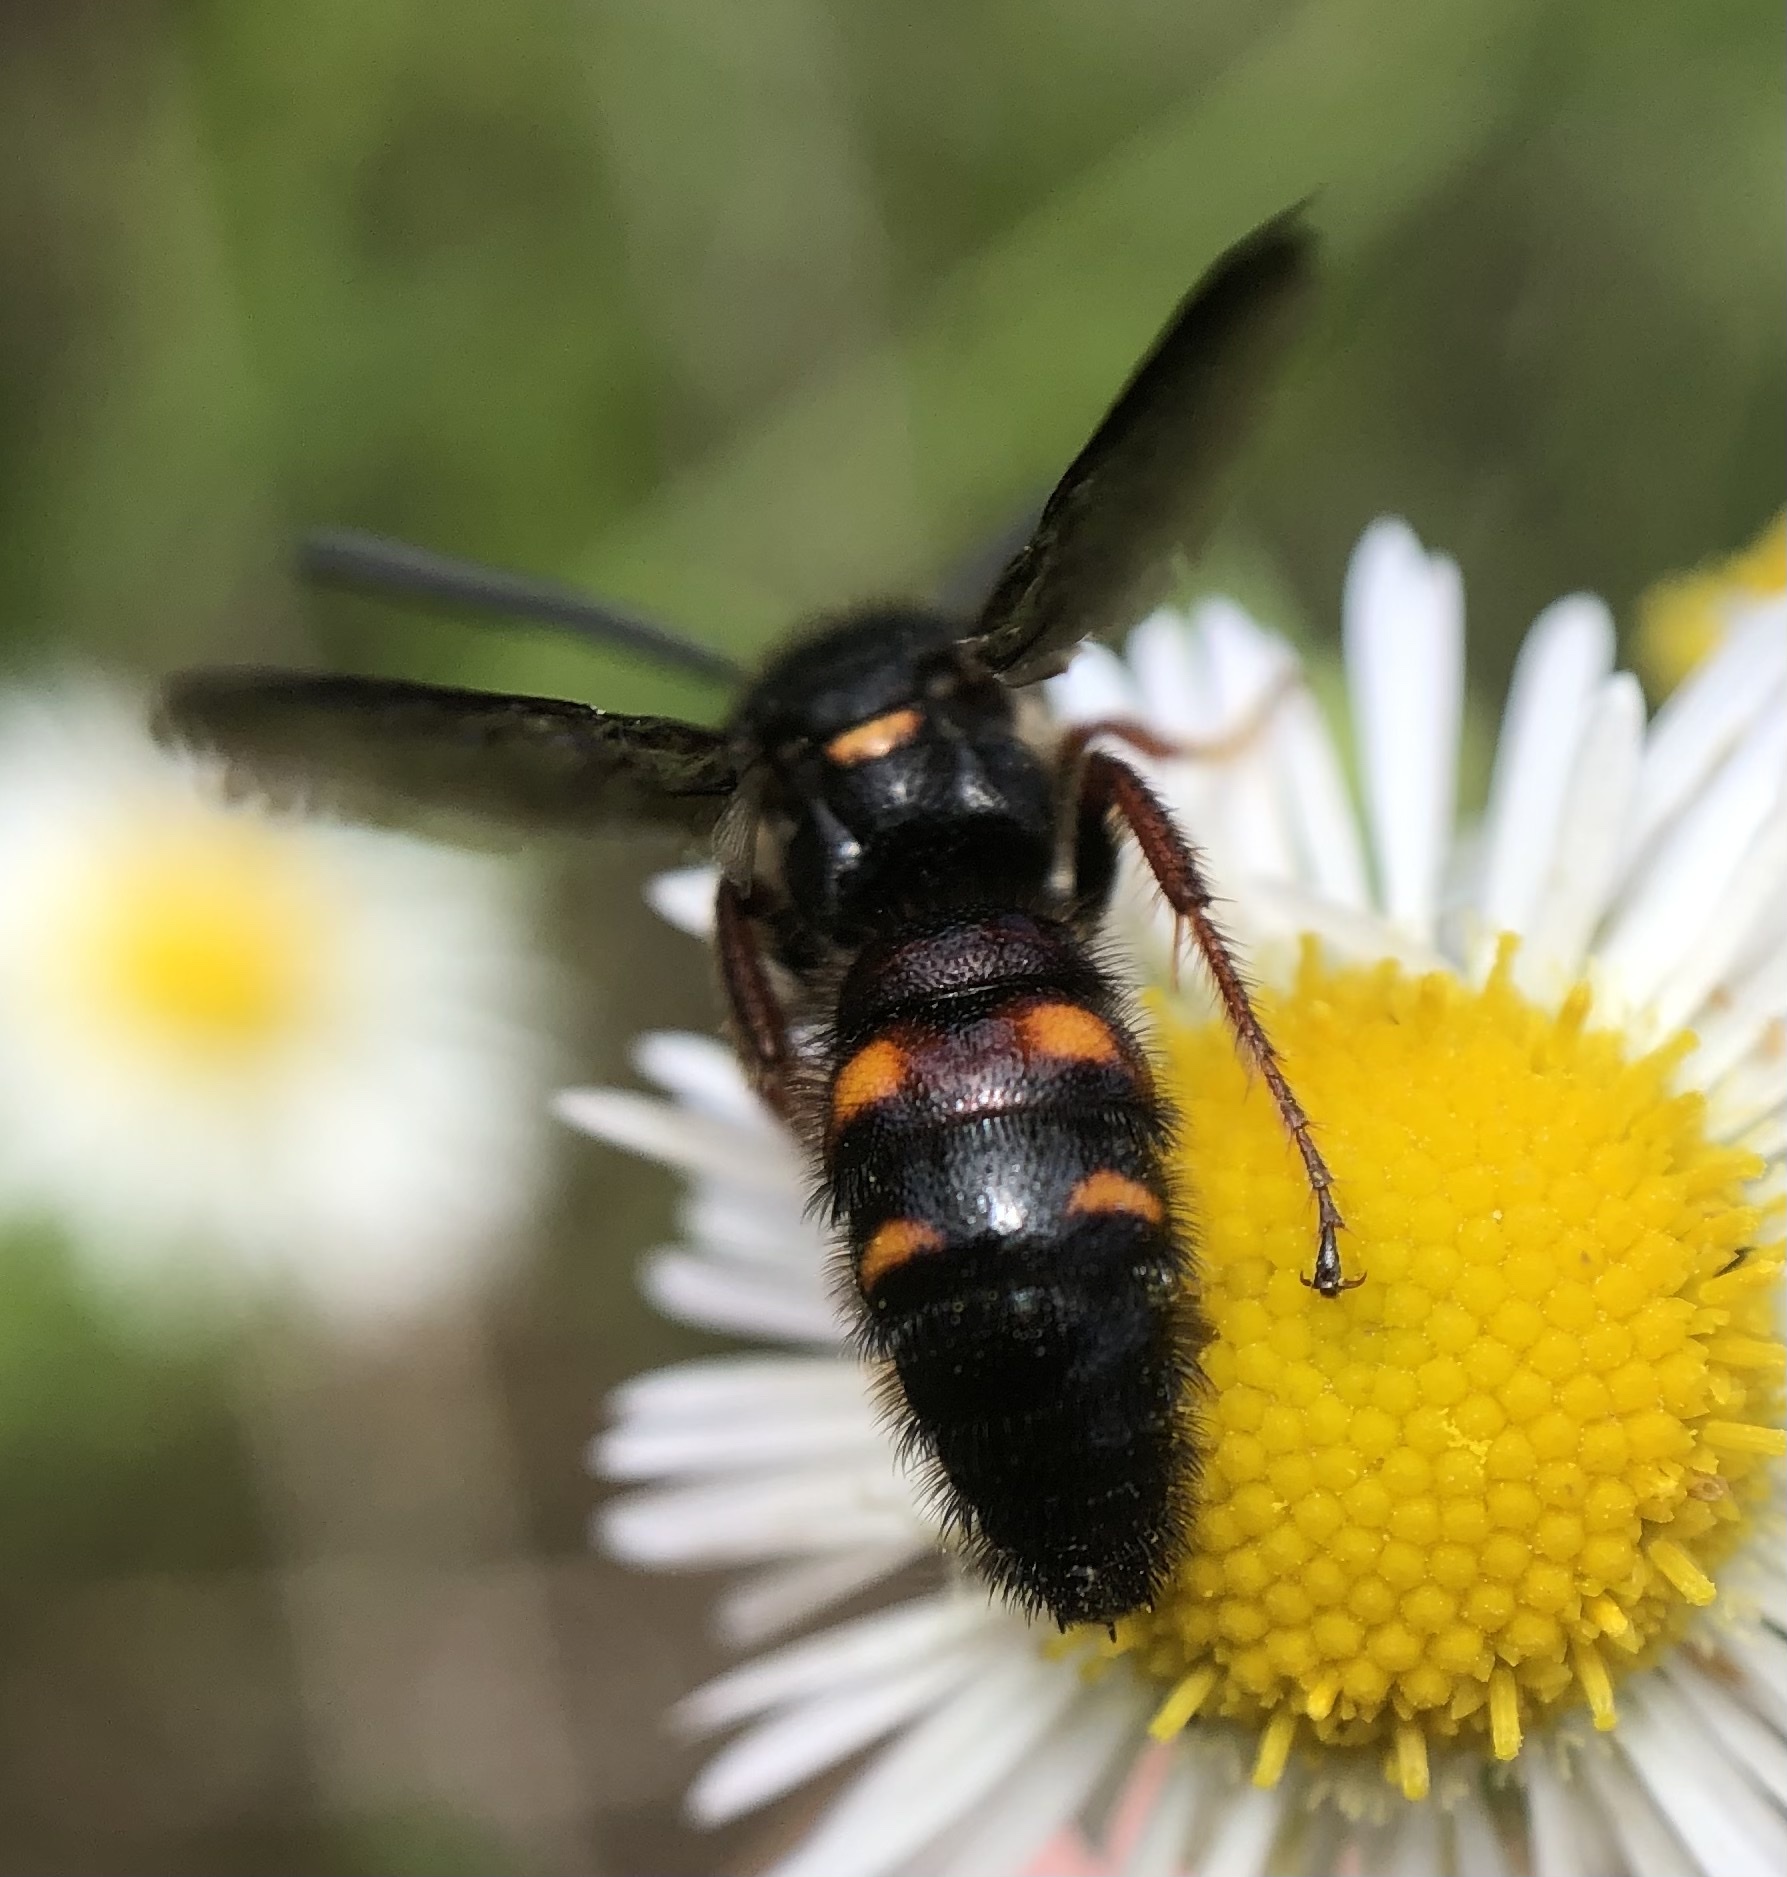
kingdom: Animalia
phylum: Arthropoda
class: Insecta
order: Hymenoptera
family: Scoliidae
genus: Scolia
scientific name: Scolia nobilitata
